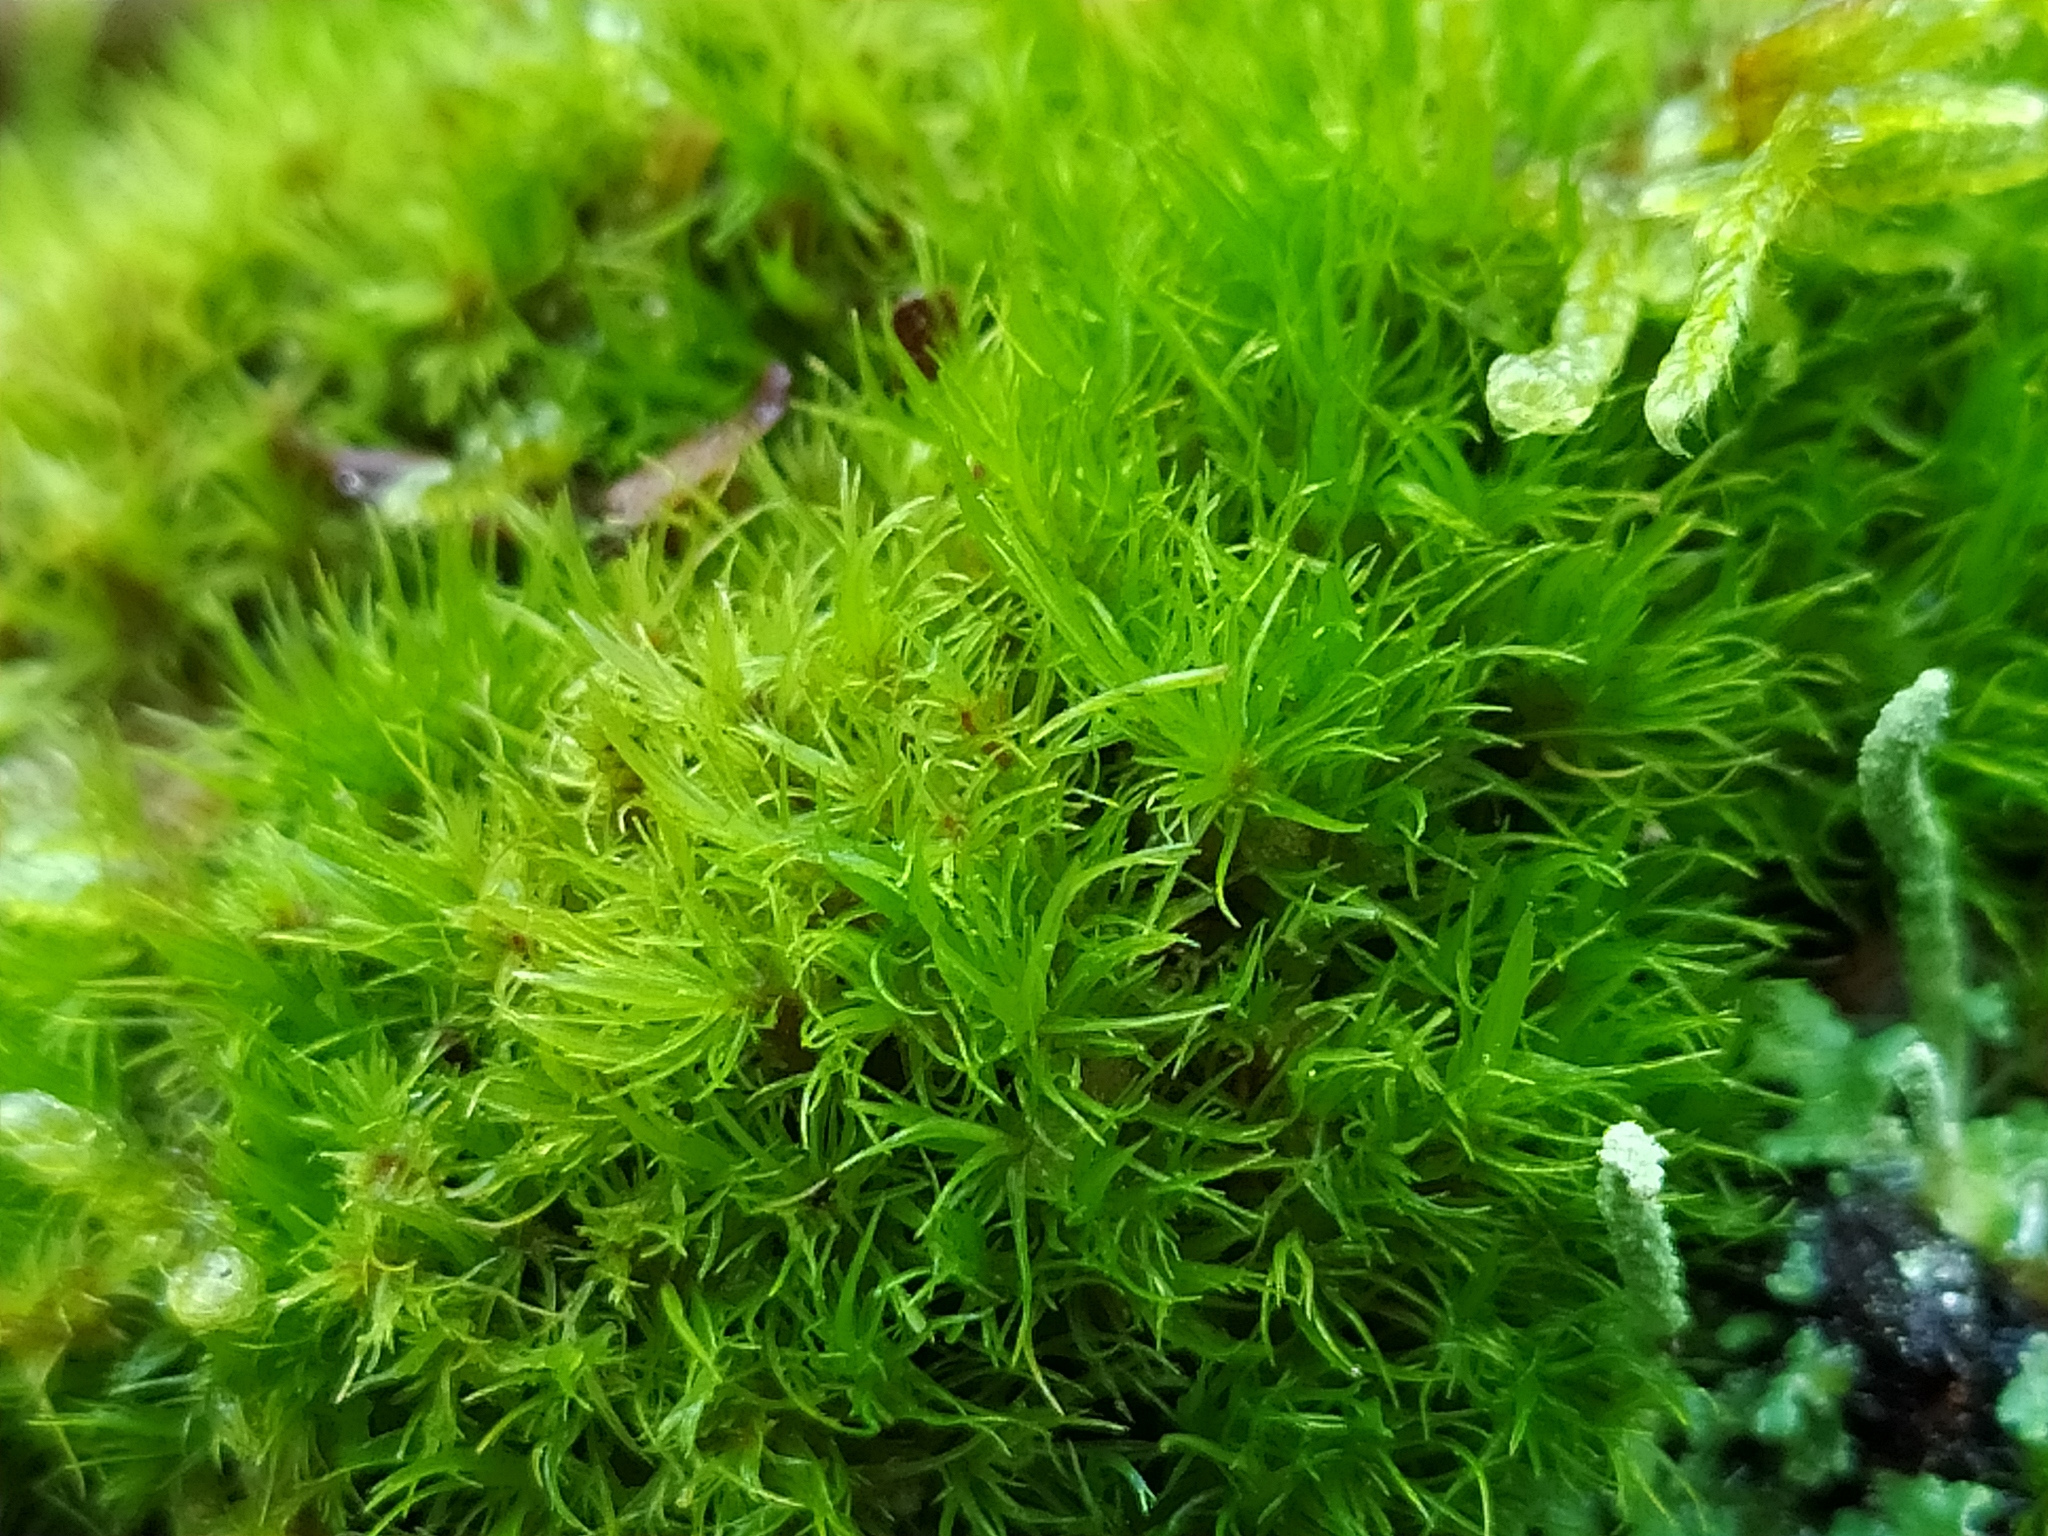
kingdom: Plantae
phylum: Bryophyta
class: Bryopsida
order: Dicranales
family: Dicranaceae
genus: Orthodicranum
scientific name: Orthodicranum montanum
